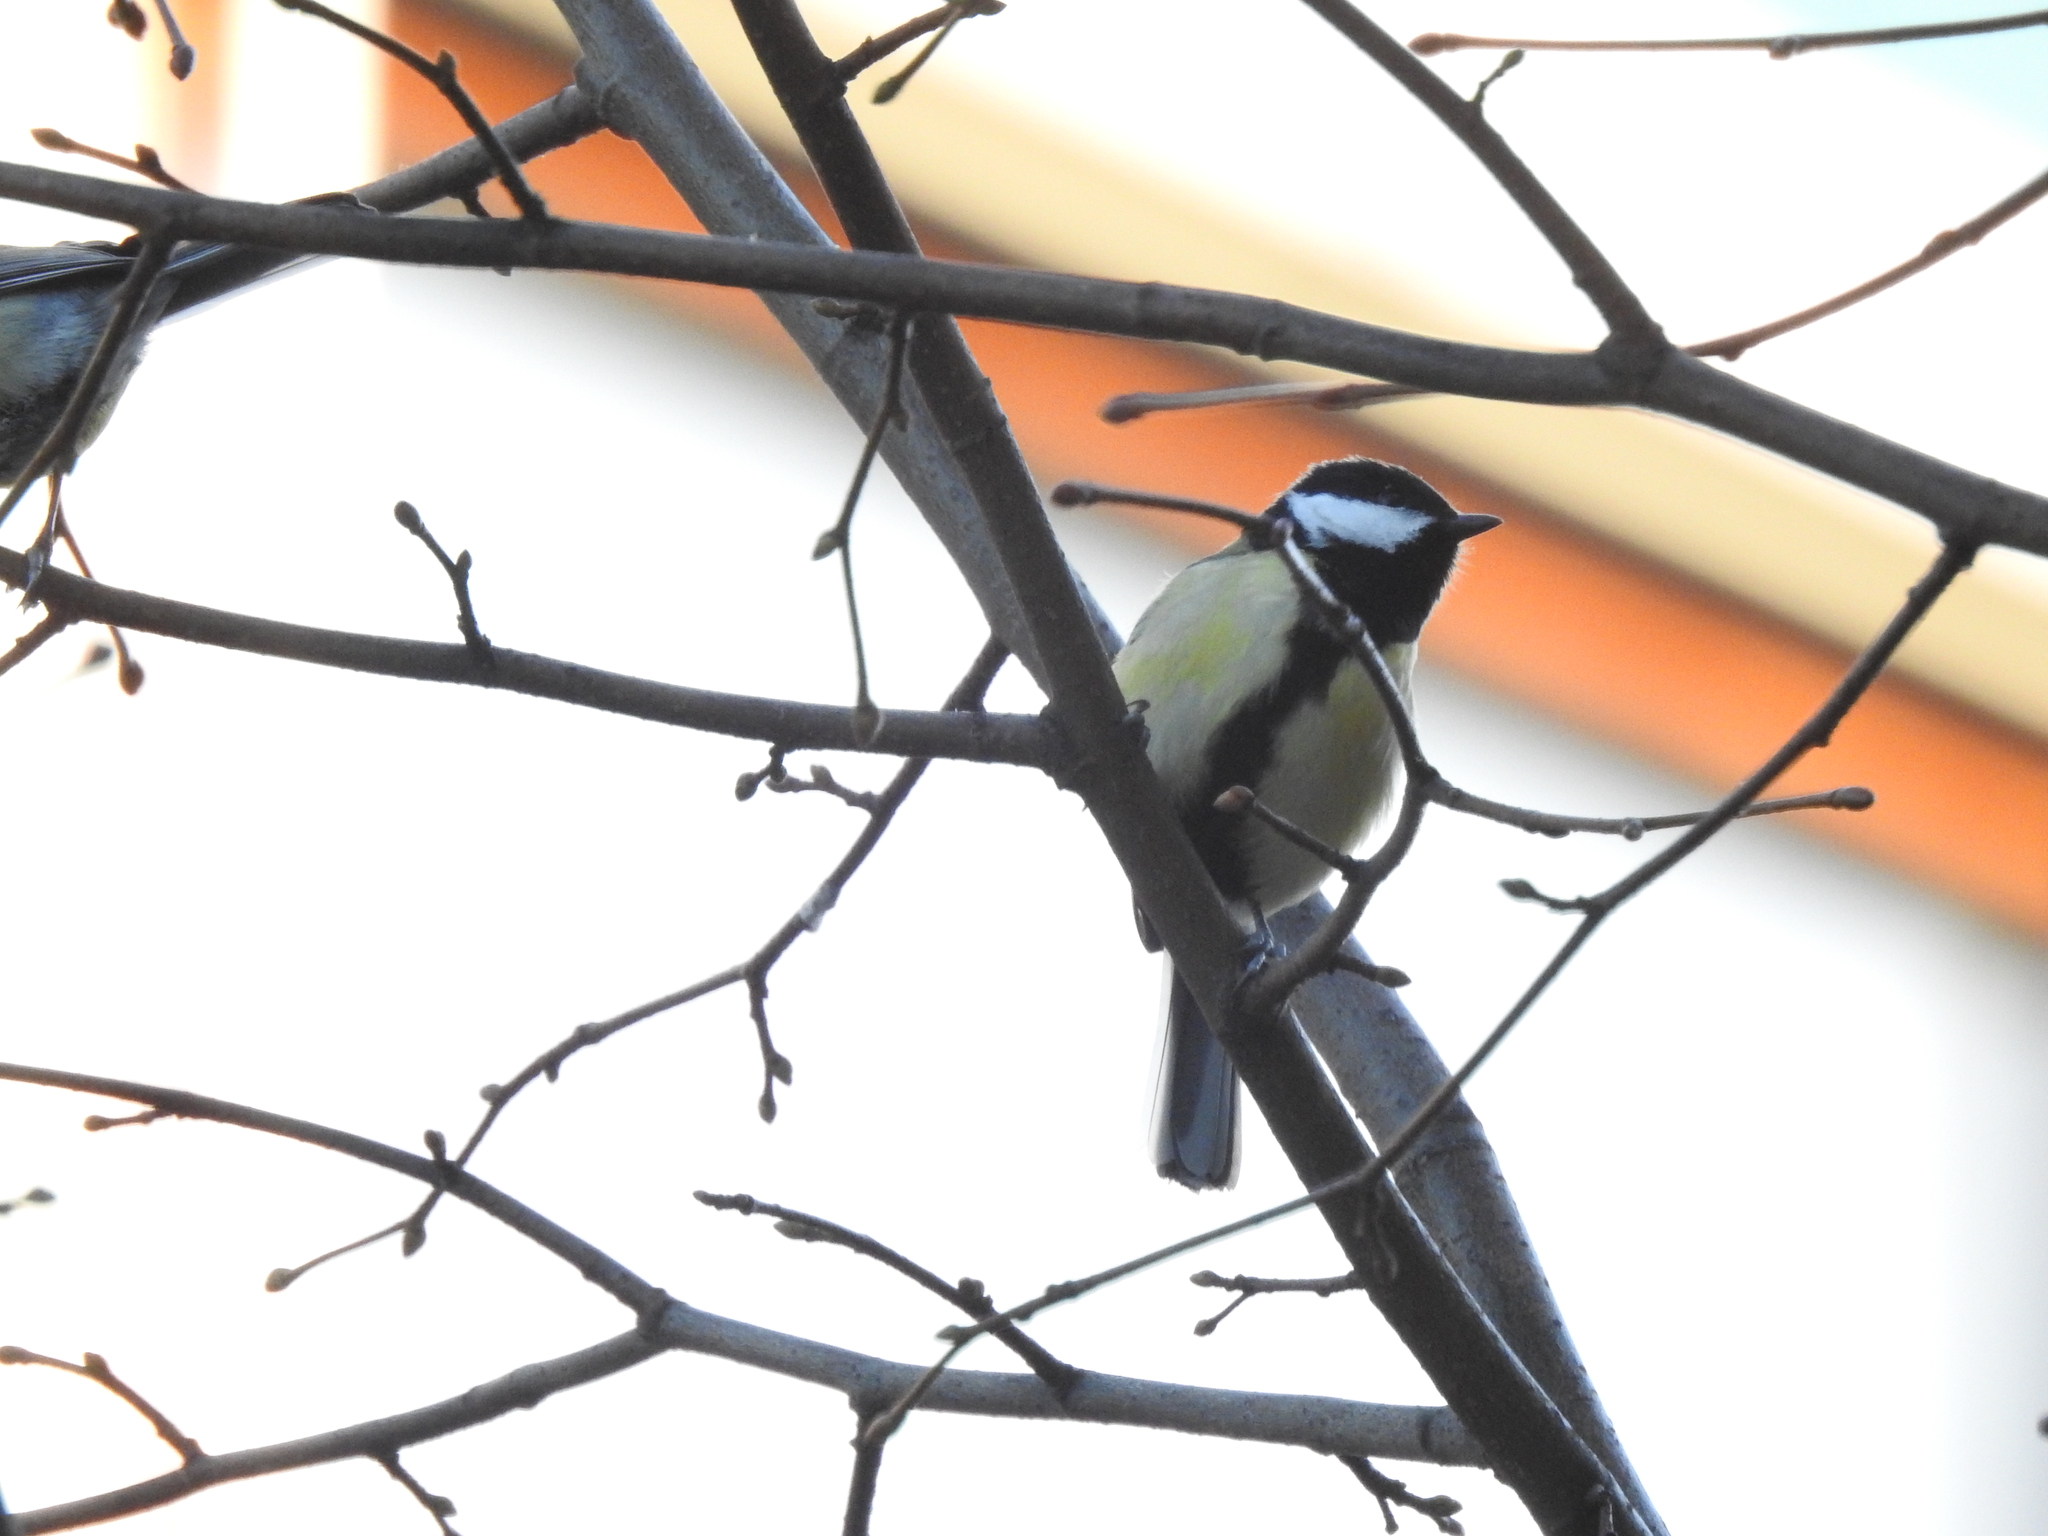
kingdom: Animalia
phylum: Chordata
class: Aves
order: Passeriformes
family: Paridae
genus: Parus
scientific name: Parus major
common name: Great tit
